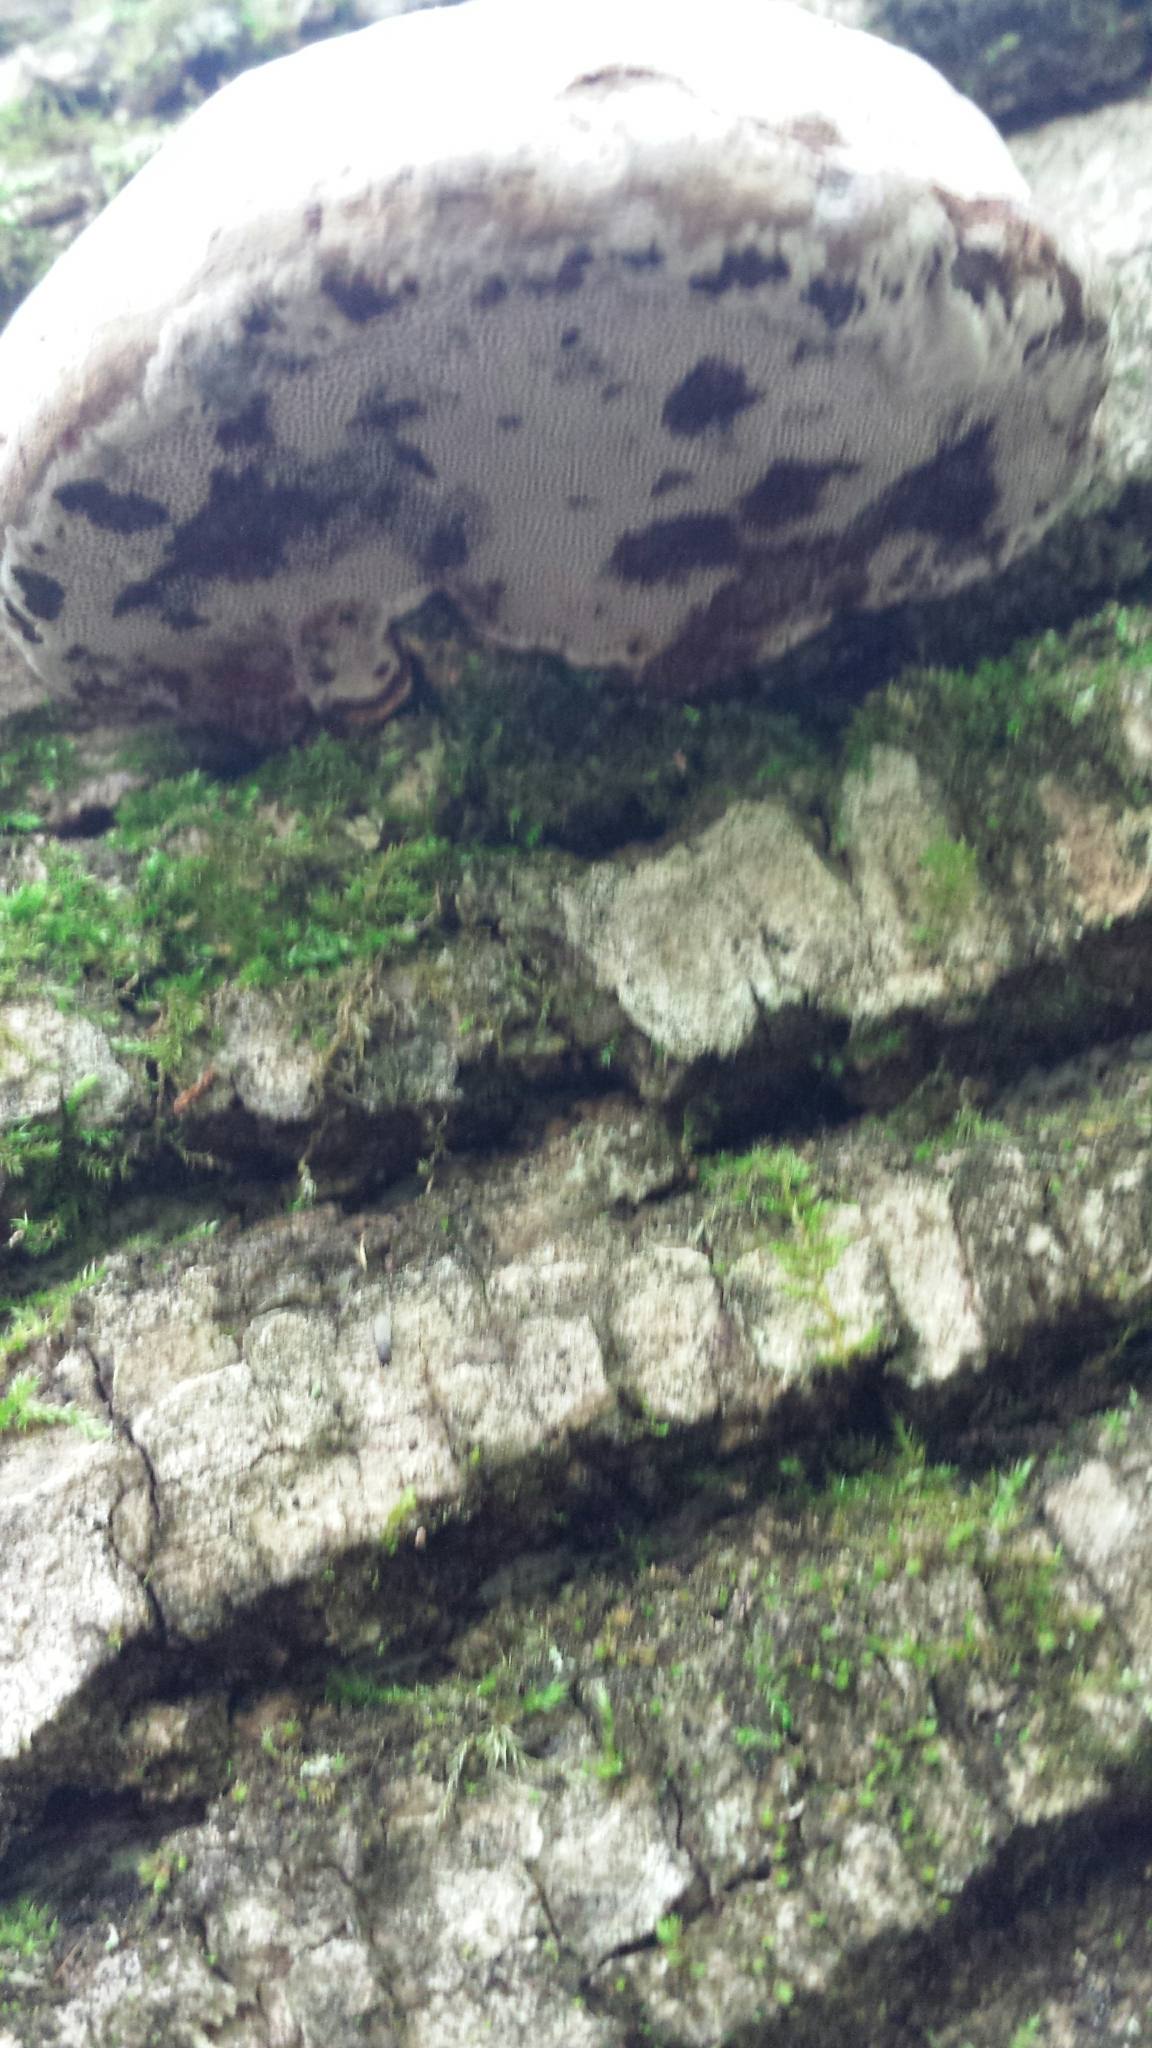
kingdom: Fungi
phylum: Basidiomycota
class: Agaricomycetes
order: Polyporales
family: Polyporaceae
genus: Fomes
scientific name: Fomes fomentarius
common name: Hoof fungus
